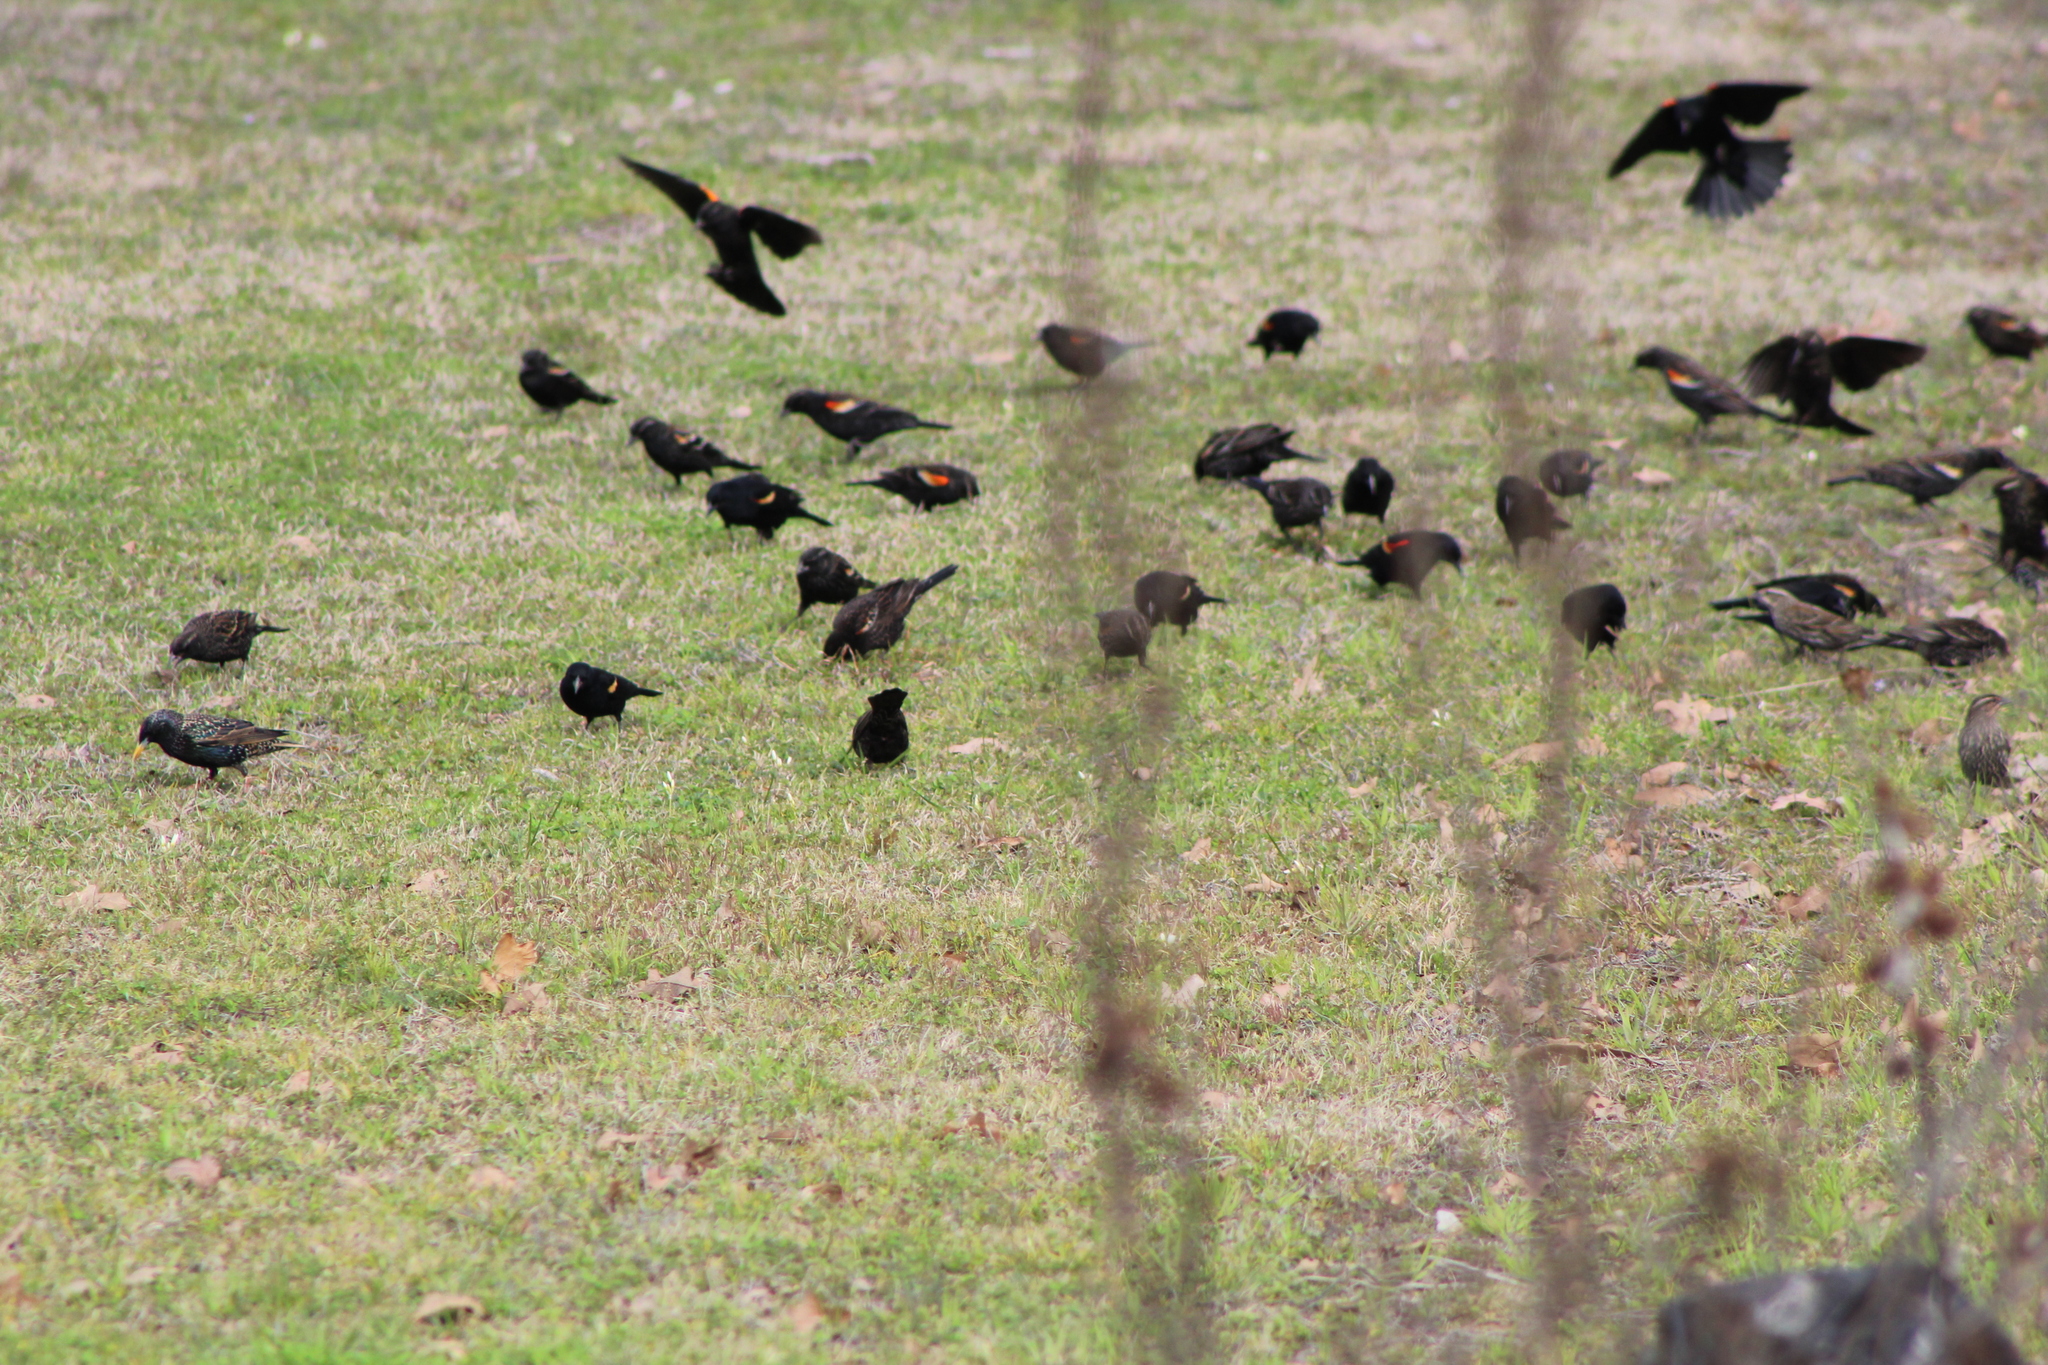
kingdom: Animalia
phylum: Chordata
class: Aves
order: Passeriformes
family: Icteridae
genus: Agelaius
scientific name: Agelaius phoeniceus
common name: Red-winged blackbird
